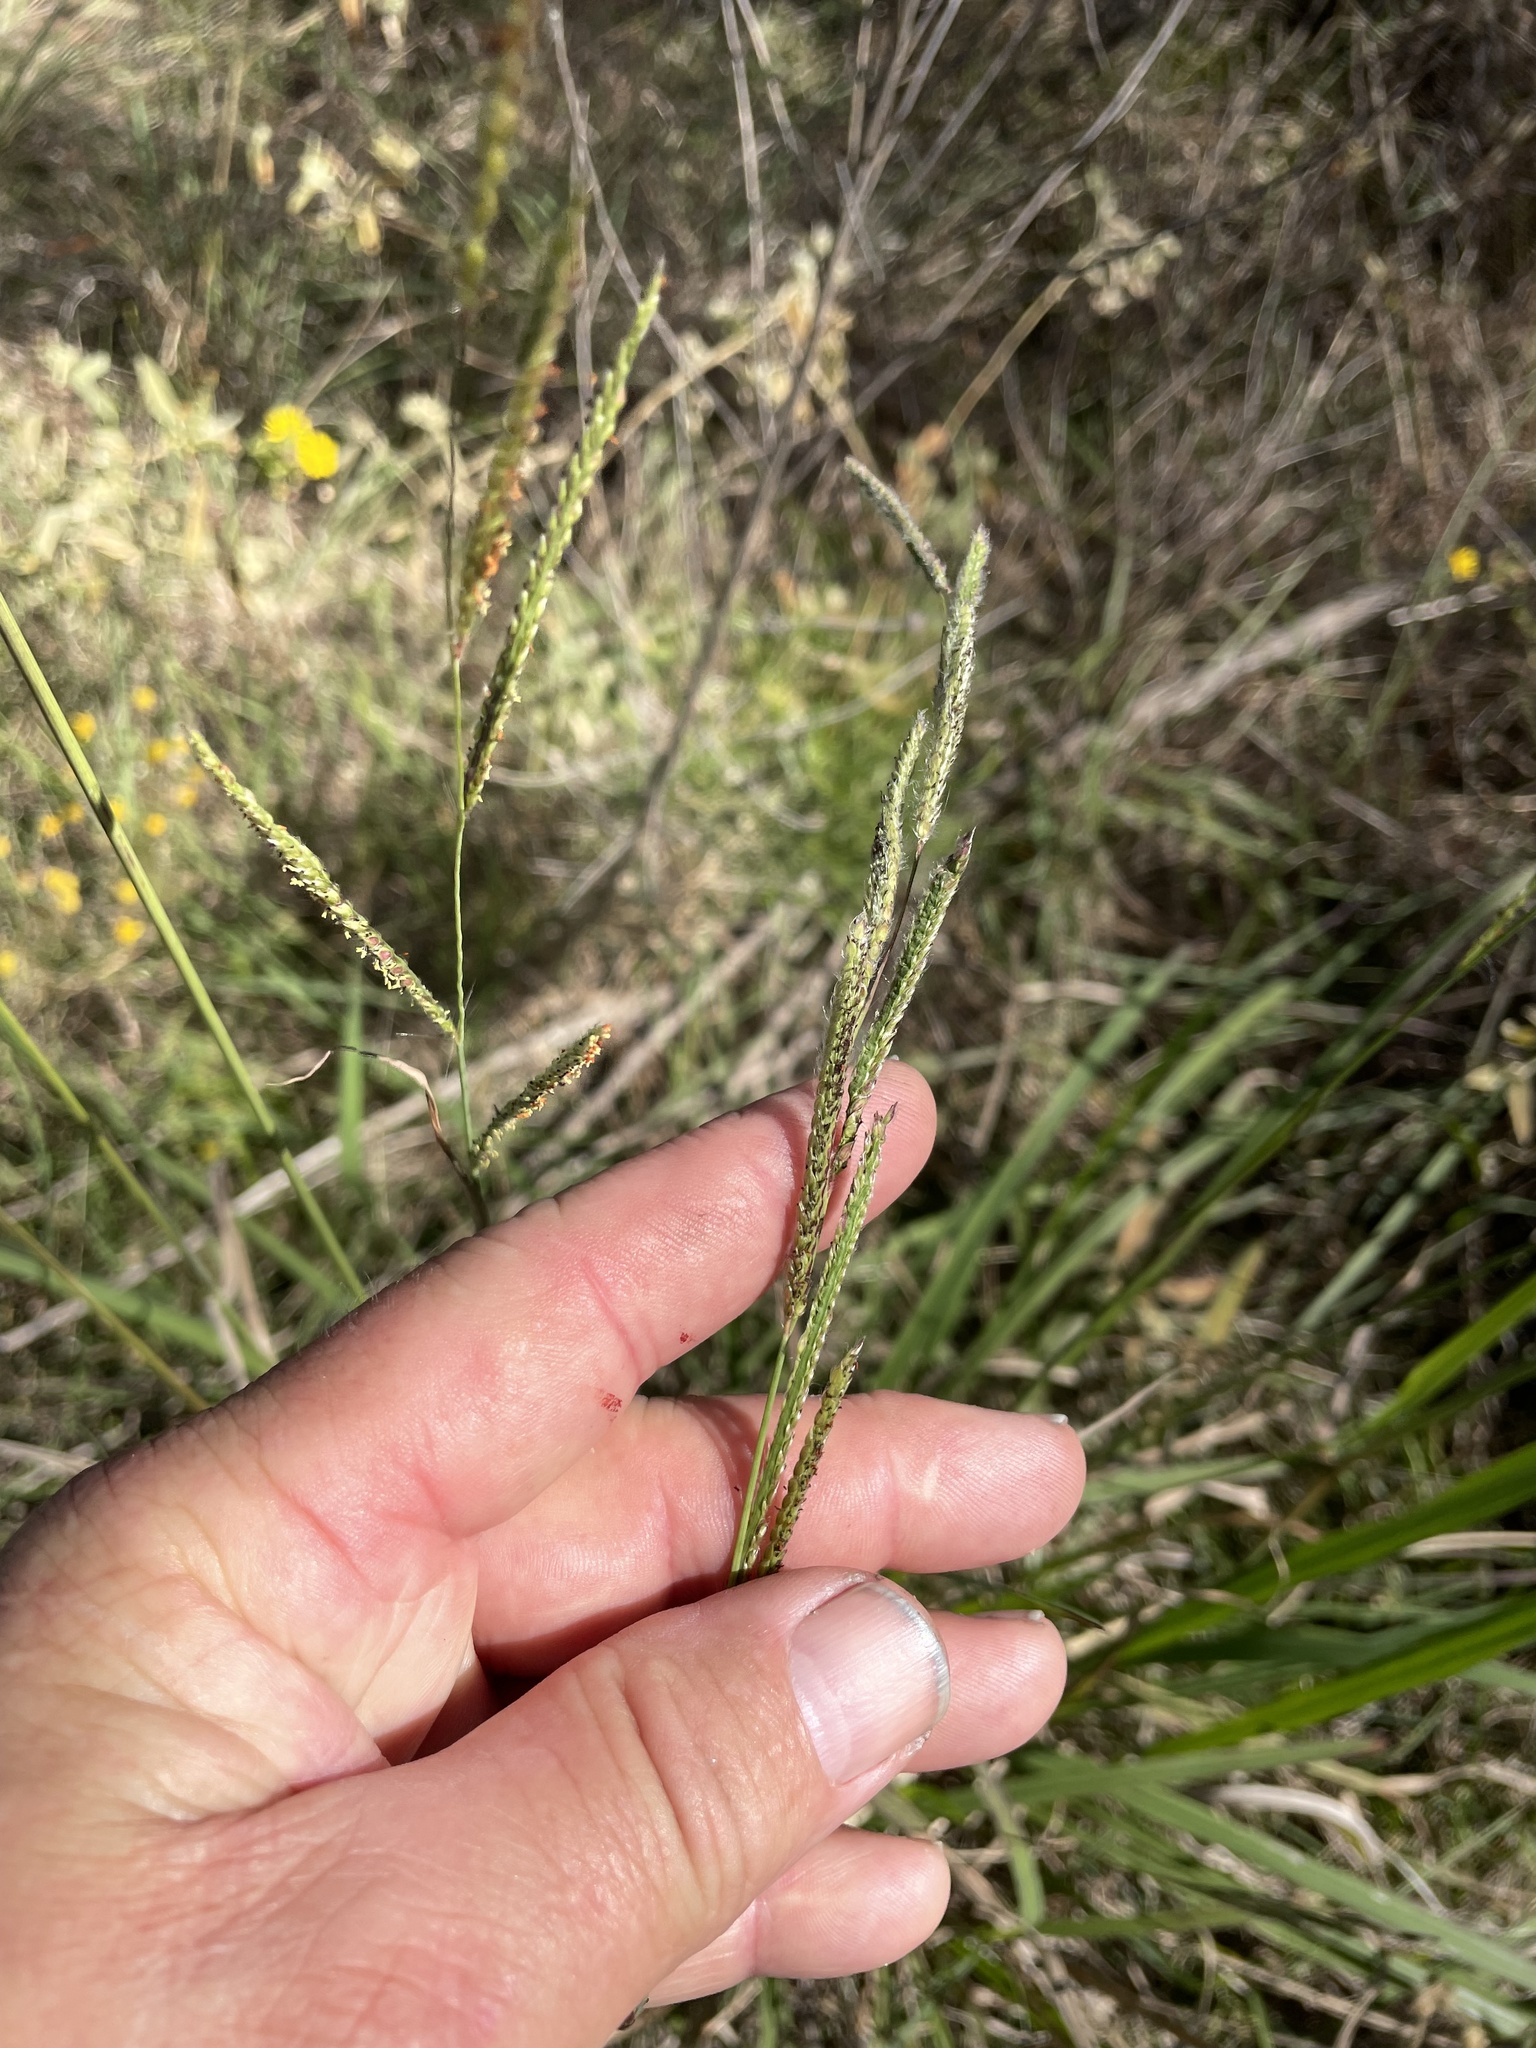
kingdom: Plantae
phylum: Tracheophyta
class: Liliopsida
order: Poales
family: Poaceae
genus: Paspalum
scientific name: Paspalum urvillei
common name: Vasey's grass
